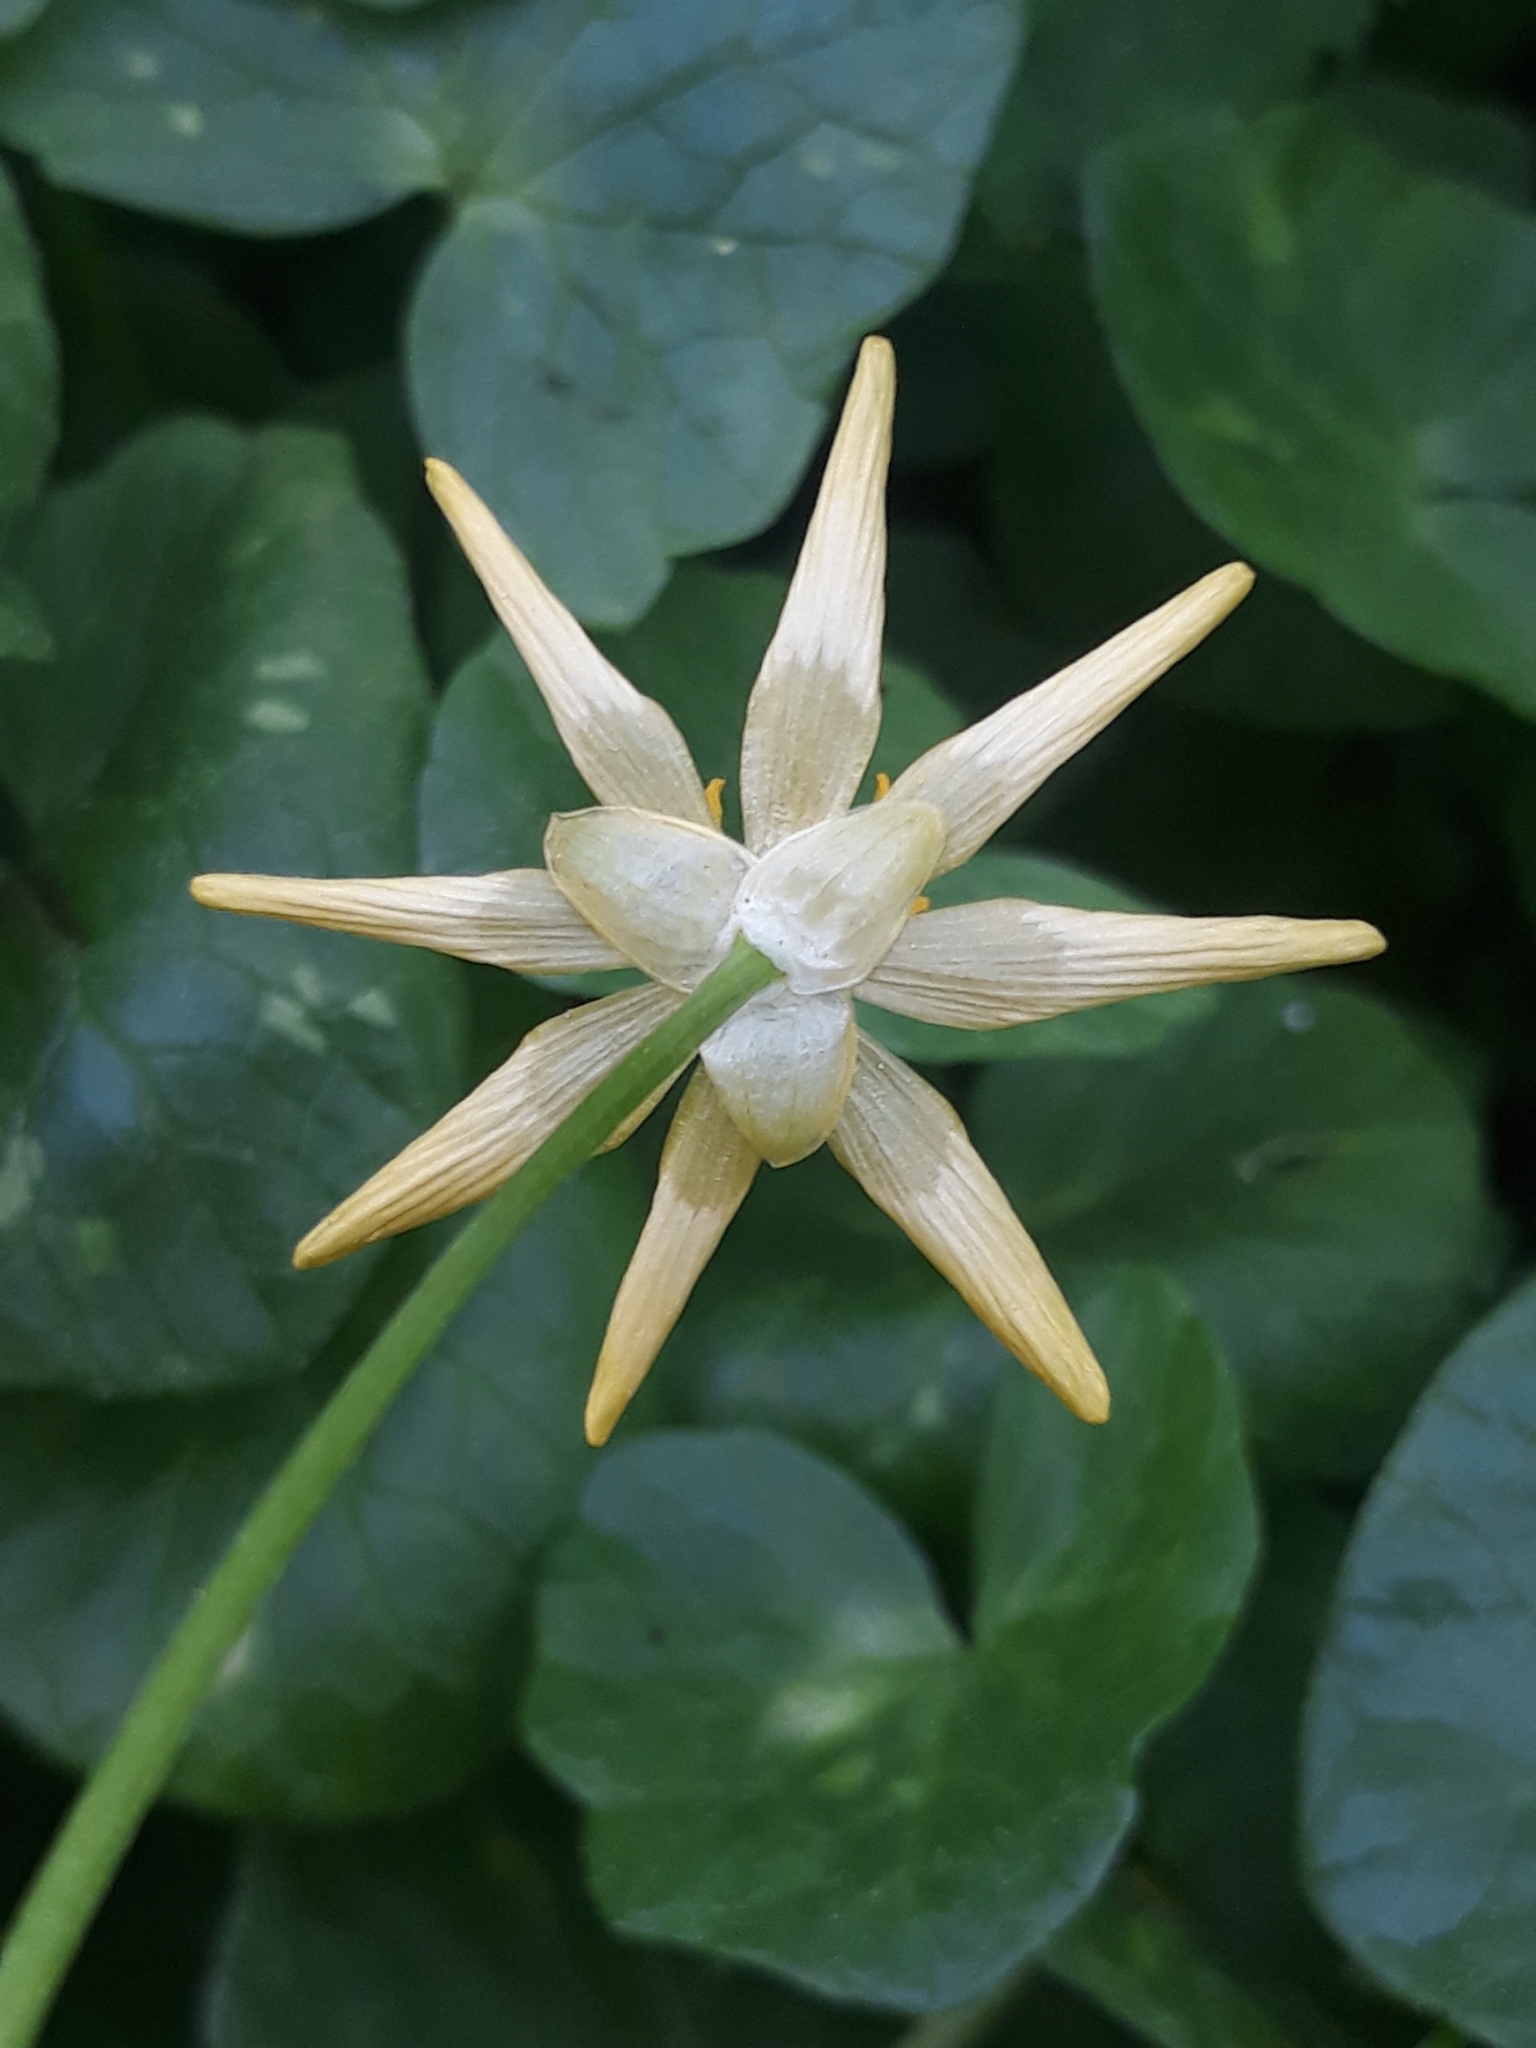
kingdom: Plantae
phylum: Tracheophyta
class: Magnoliopsida
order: Ranunculales
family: Ranunculaceae
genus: Ficaria
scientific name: Ficaria verna
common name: Lesser celandine
